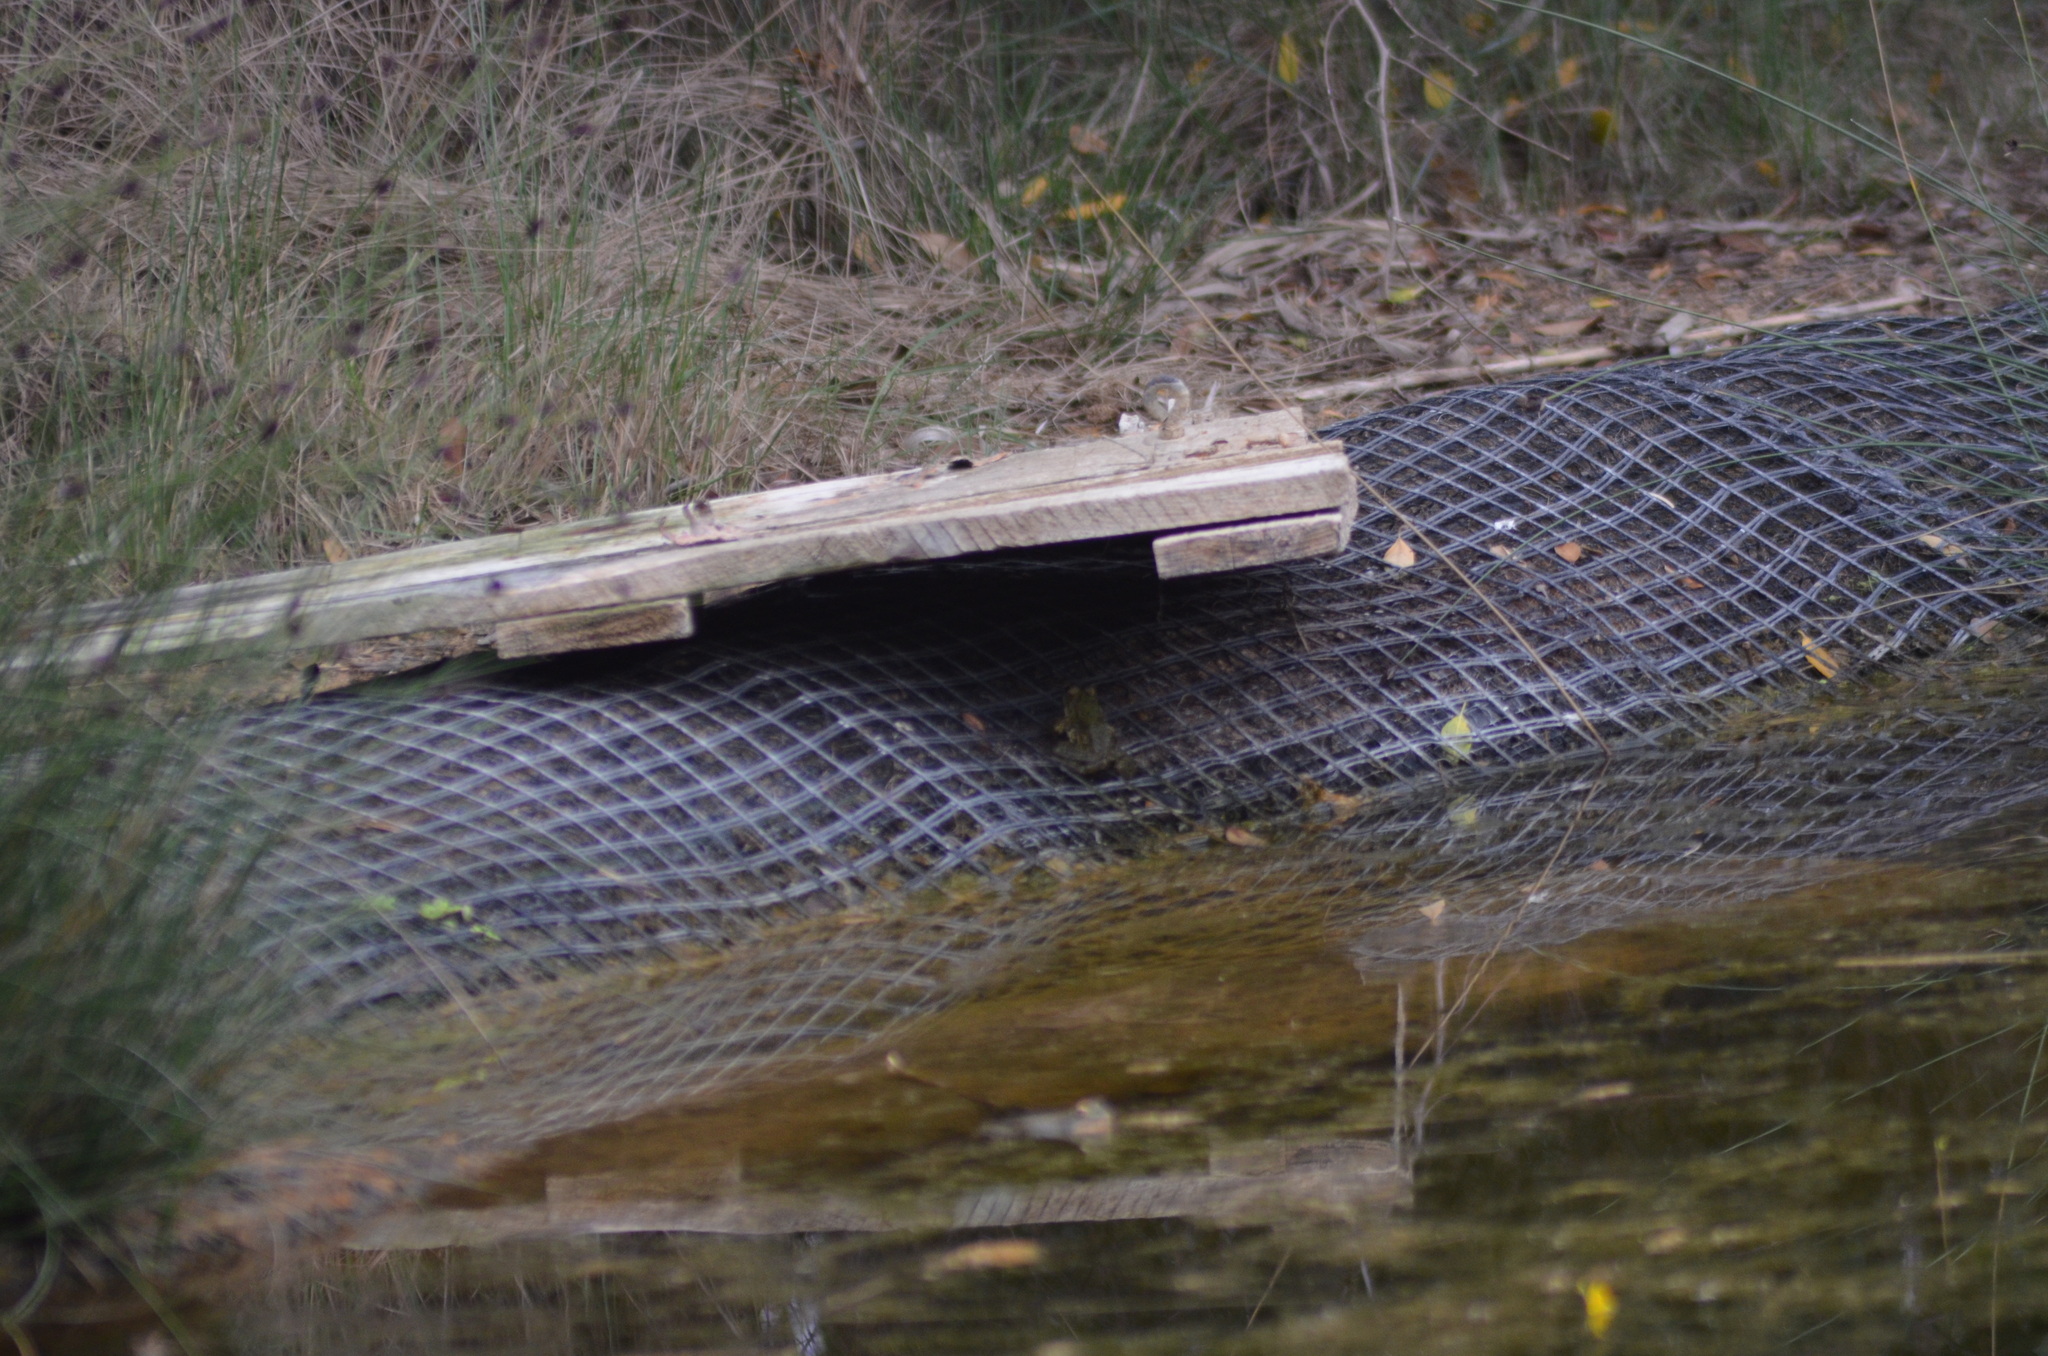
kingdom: Animalia
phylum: Chordata
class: Amphibia
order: Anura
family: Ranidae
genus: Pelophylax
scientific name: Pelophylax
